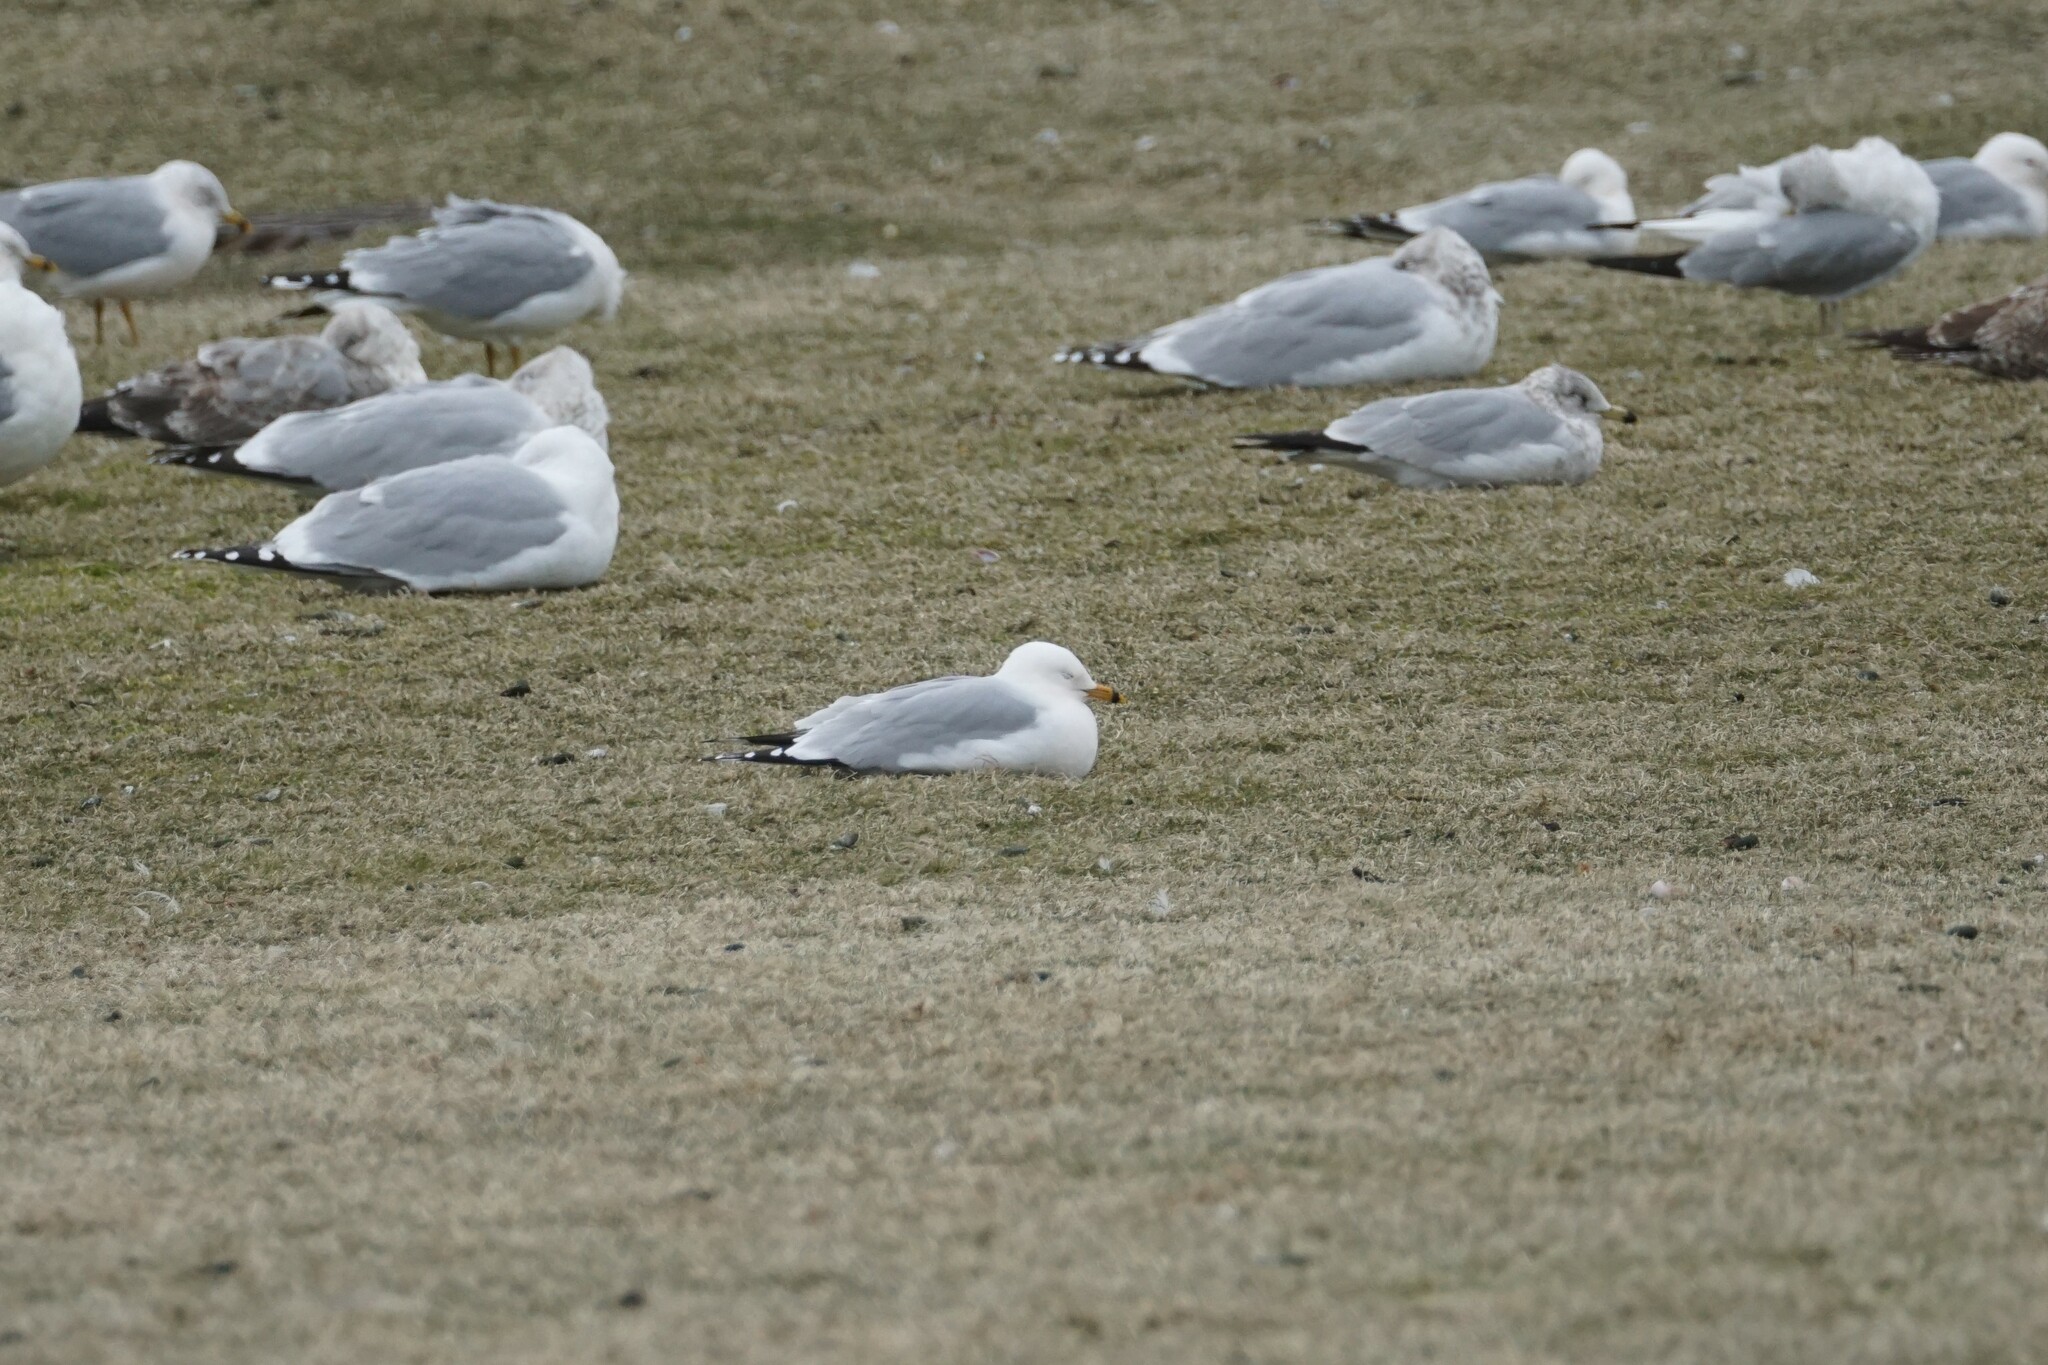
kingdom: Animalia
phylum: Chordata
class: Aves
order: Charadriiformes
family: Laridae
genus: Larus
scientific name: Larus delawarensis
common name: Ring-billed gull
